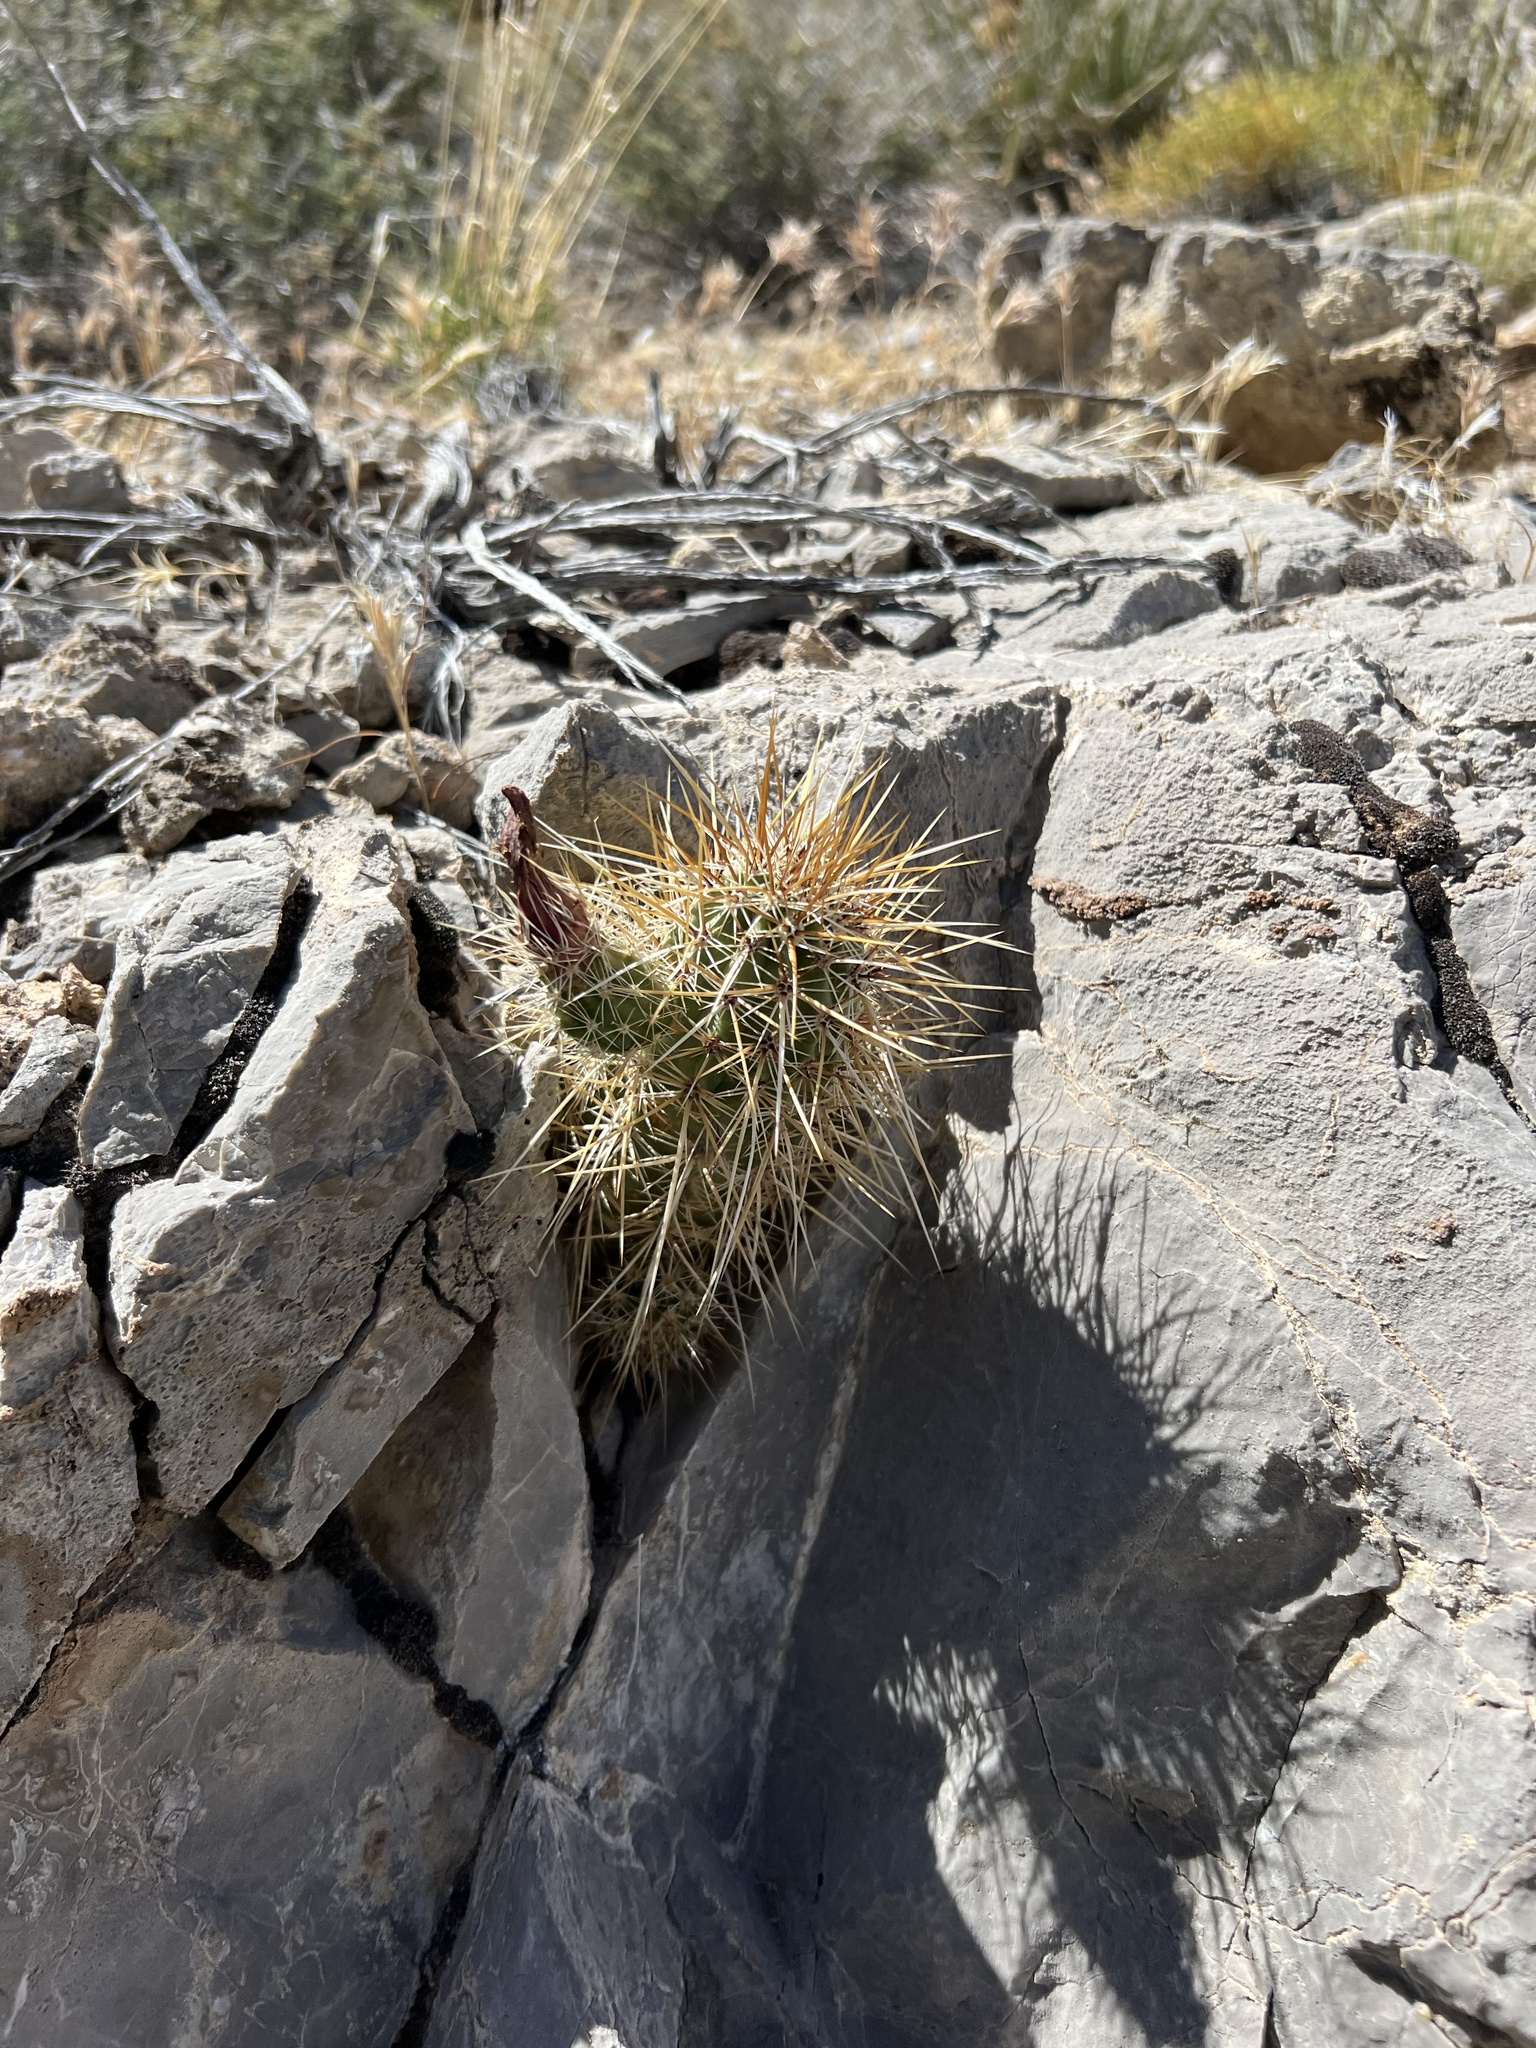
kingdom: Plantae
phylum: Tracheophyta
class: Magnoliopsida
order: Caryophyllales
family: Cactaceae
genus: Echinocereus
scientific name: Echinocereus engelmannii
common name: Engelmann's hedgehog cactus
